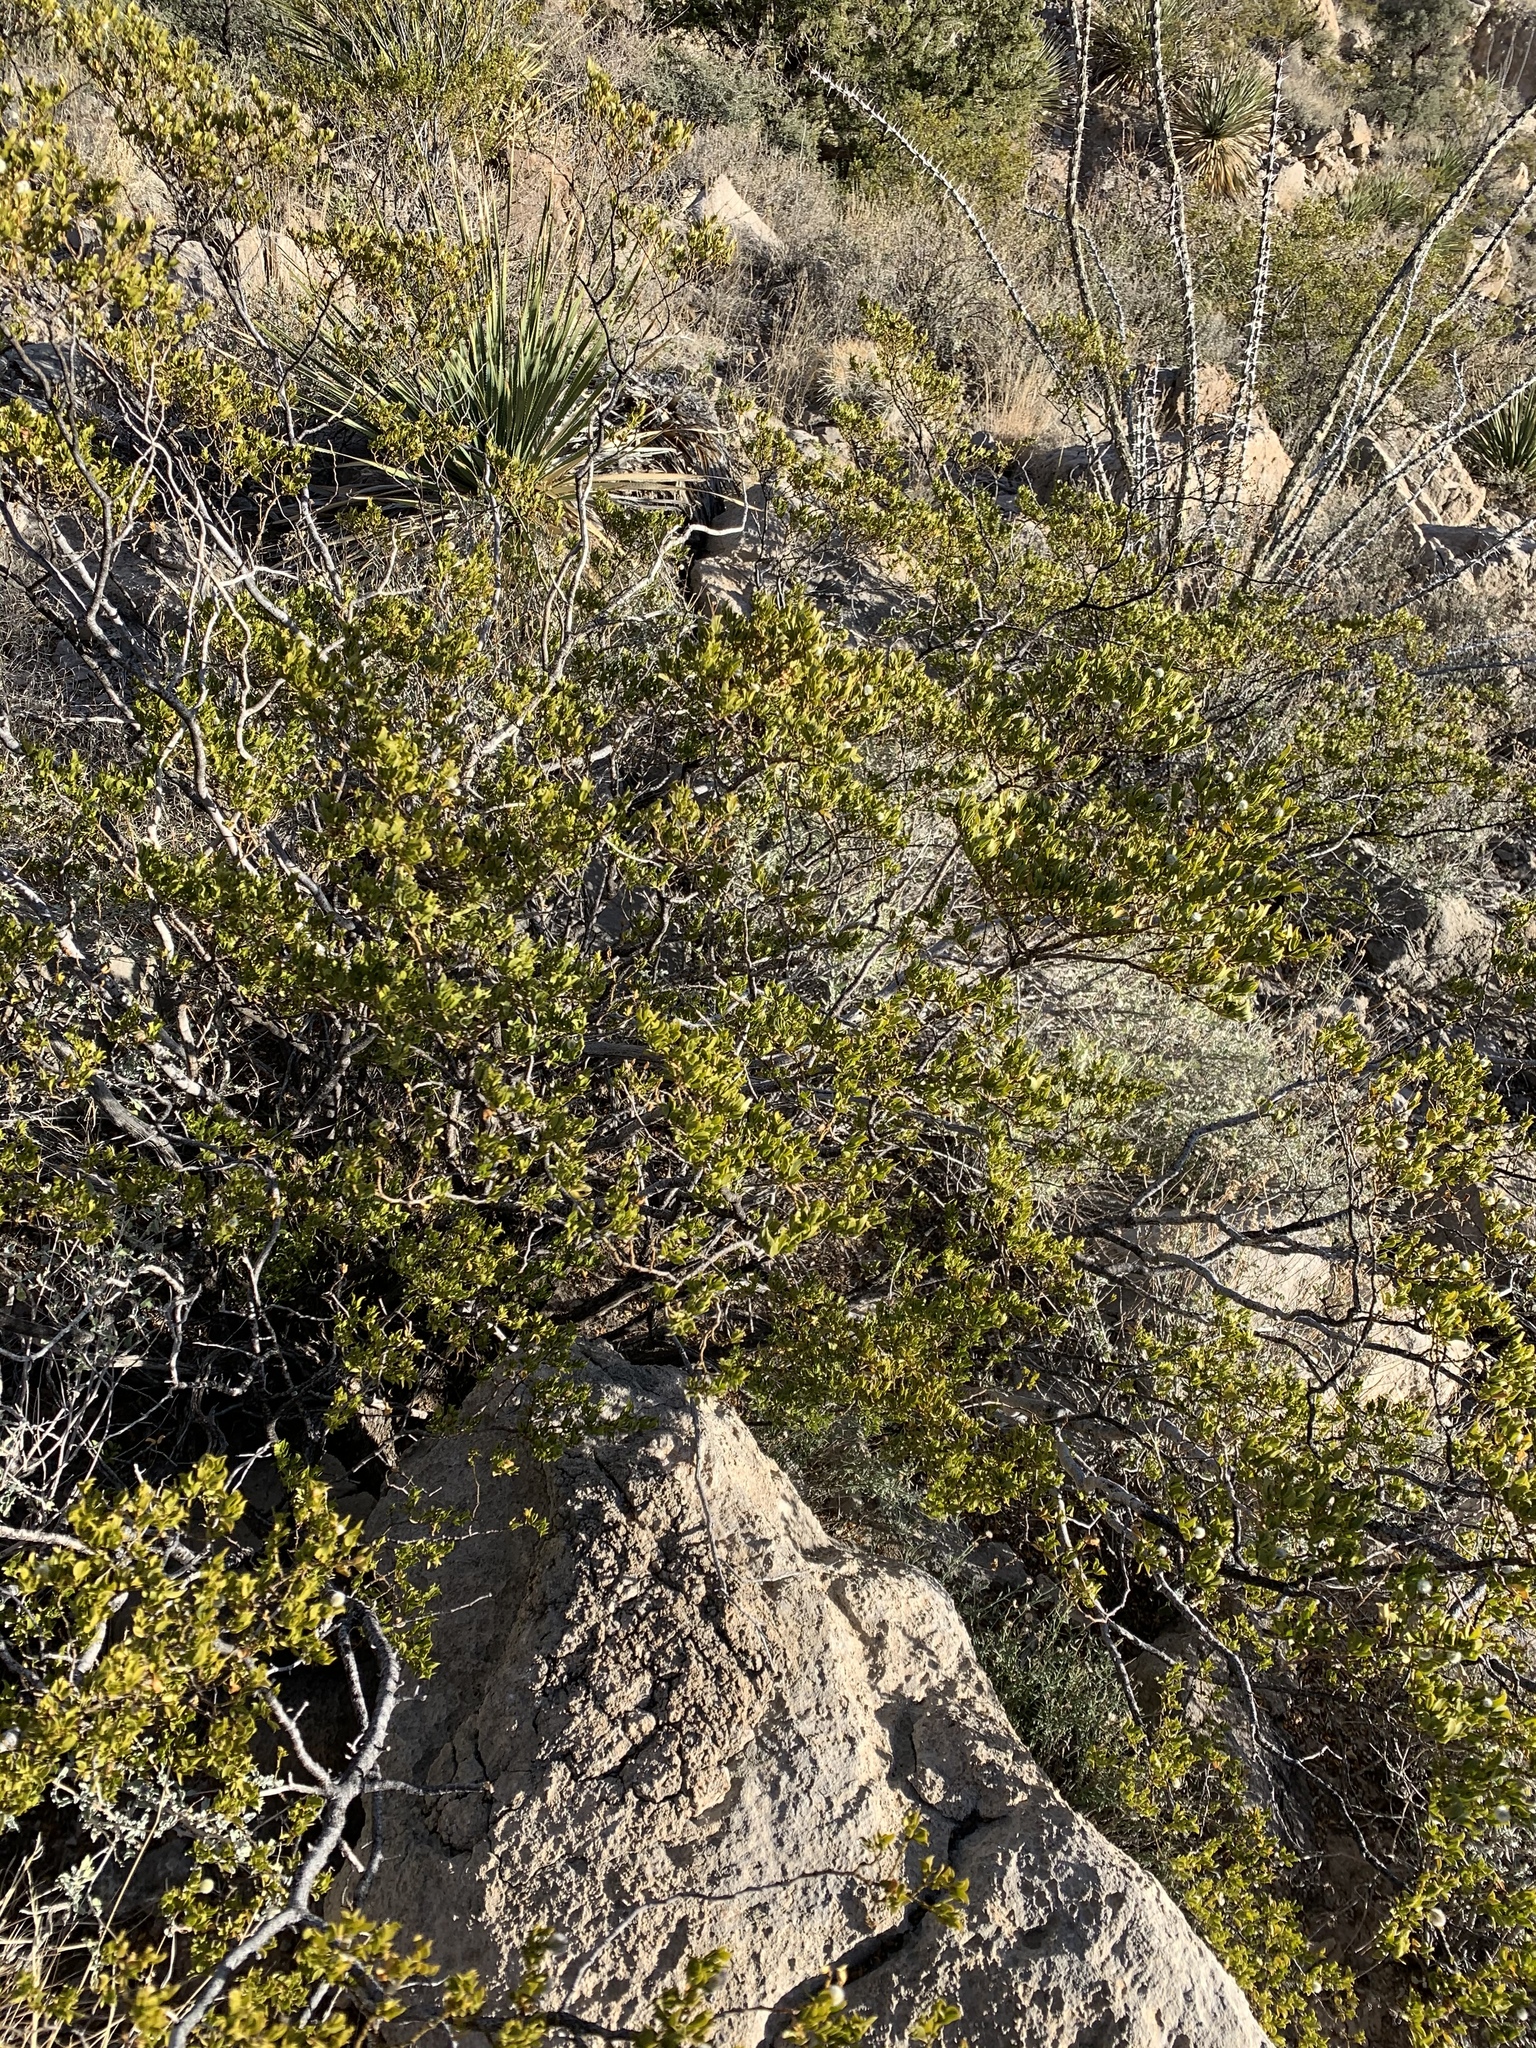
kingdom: Plantae
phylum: Tracheophyta
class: Magnoliopsida
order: Zygophyllales
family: Zygophyllaceae
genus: Larrea
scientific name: Larrea tridentata
